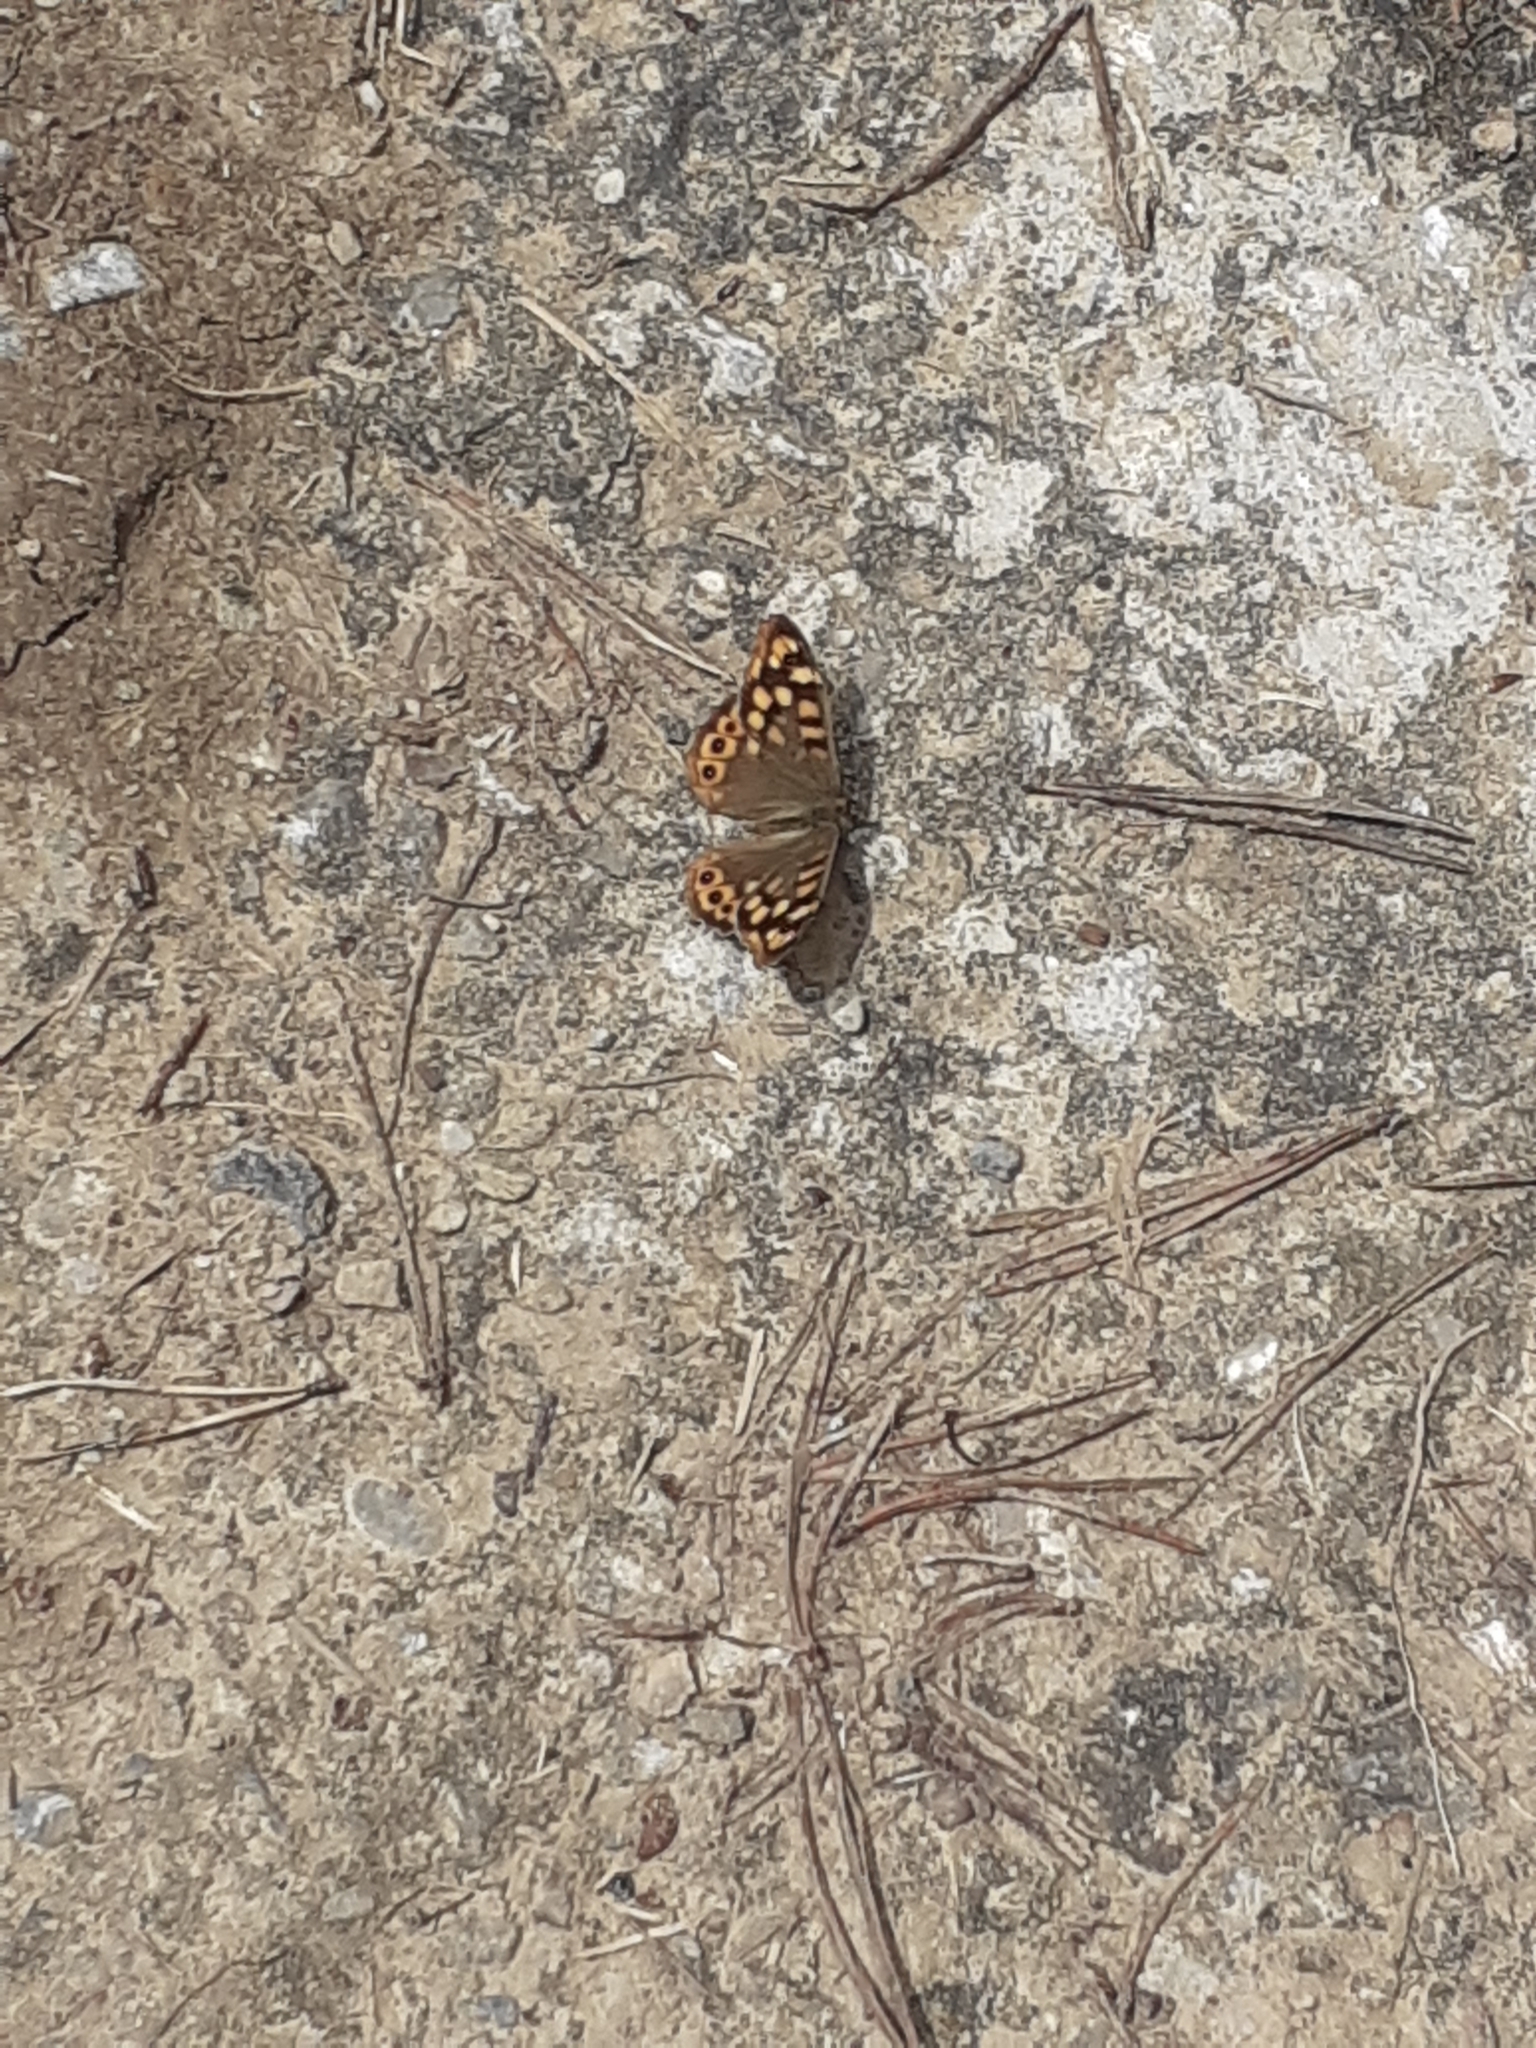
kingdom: Animalia
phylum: Arthropoda
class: Insecta
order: Lepidoptera
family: Nymphalidae
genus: Pararge
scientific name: Pararge aegeria
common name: Speckled wood
